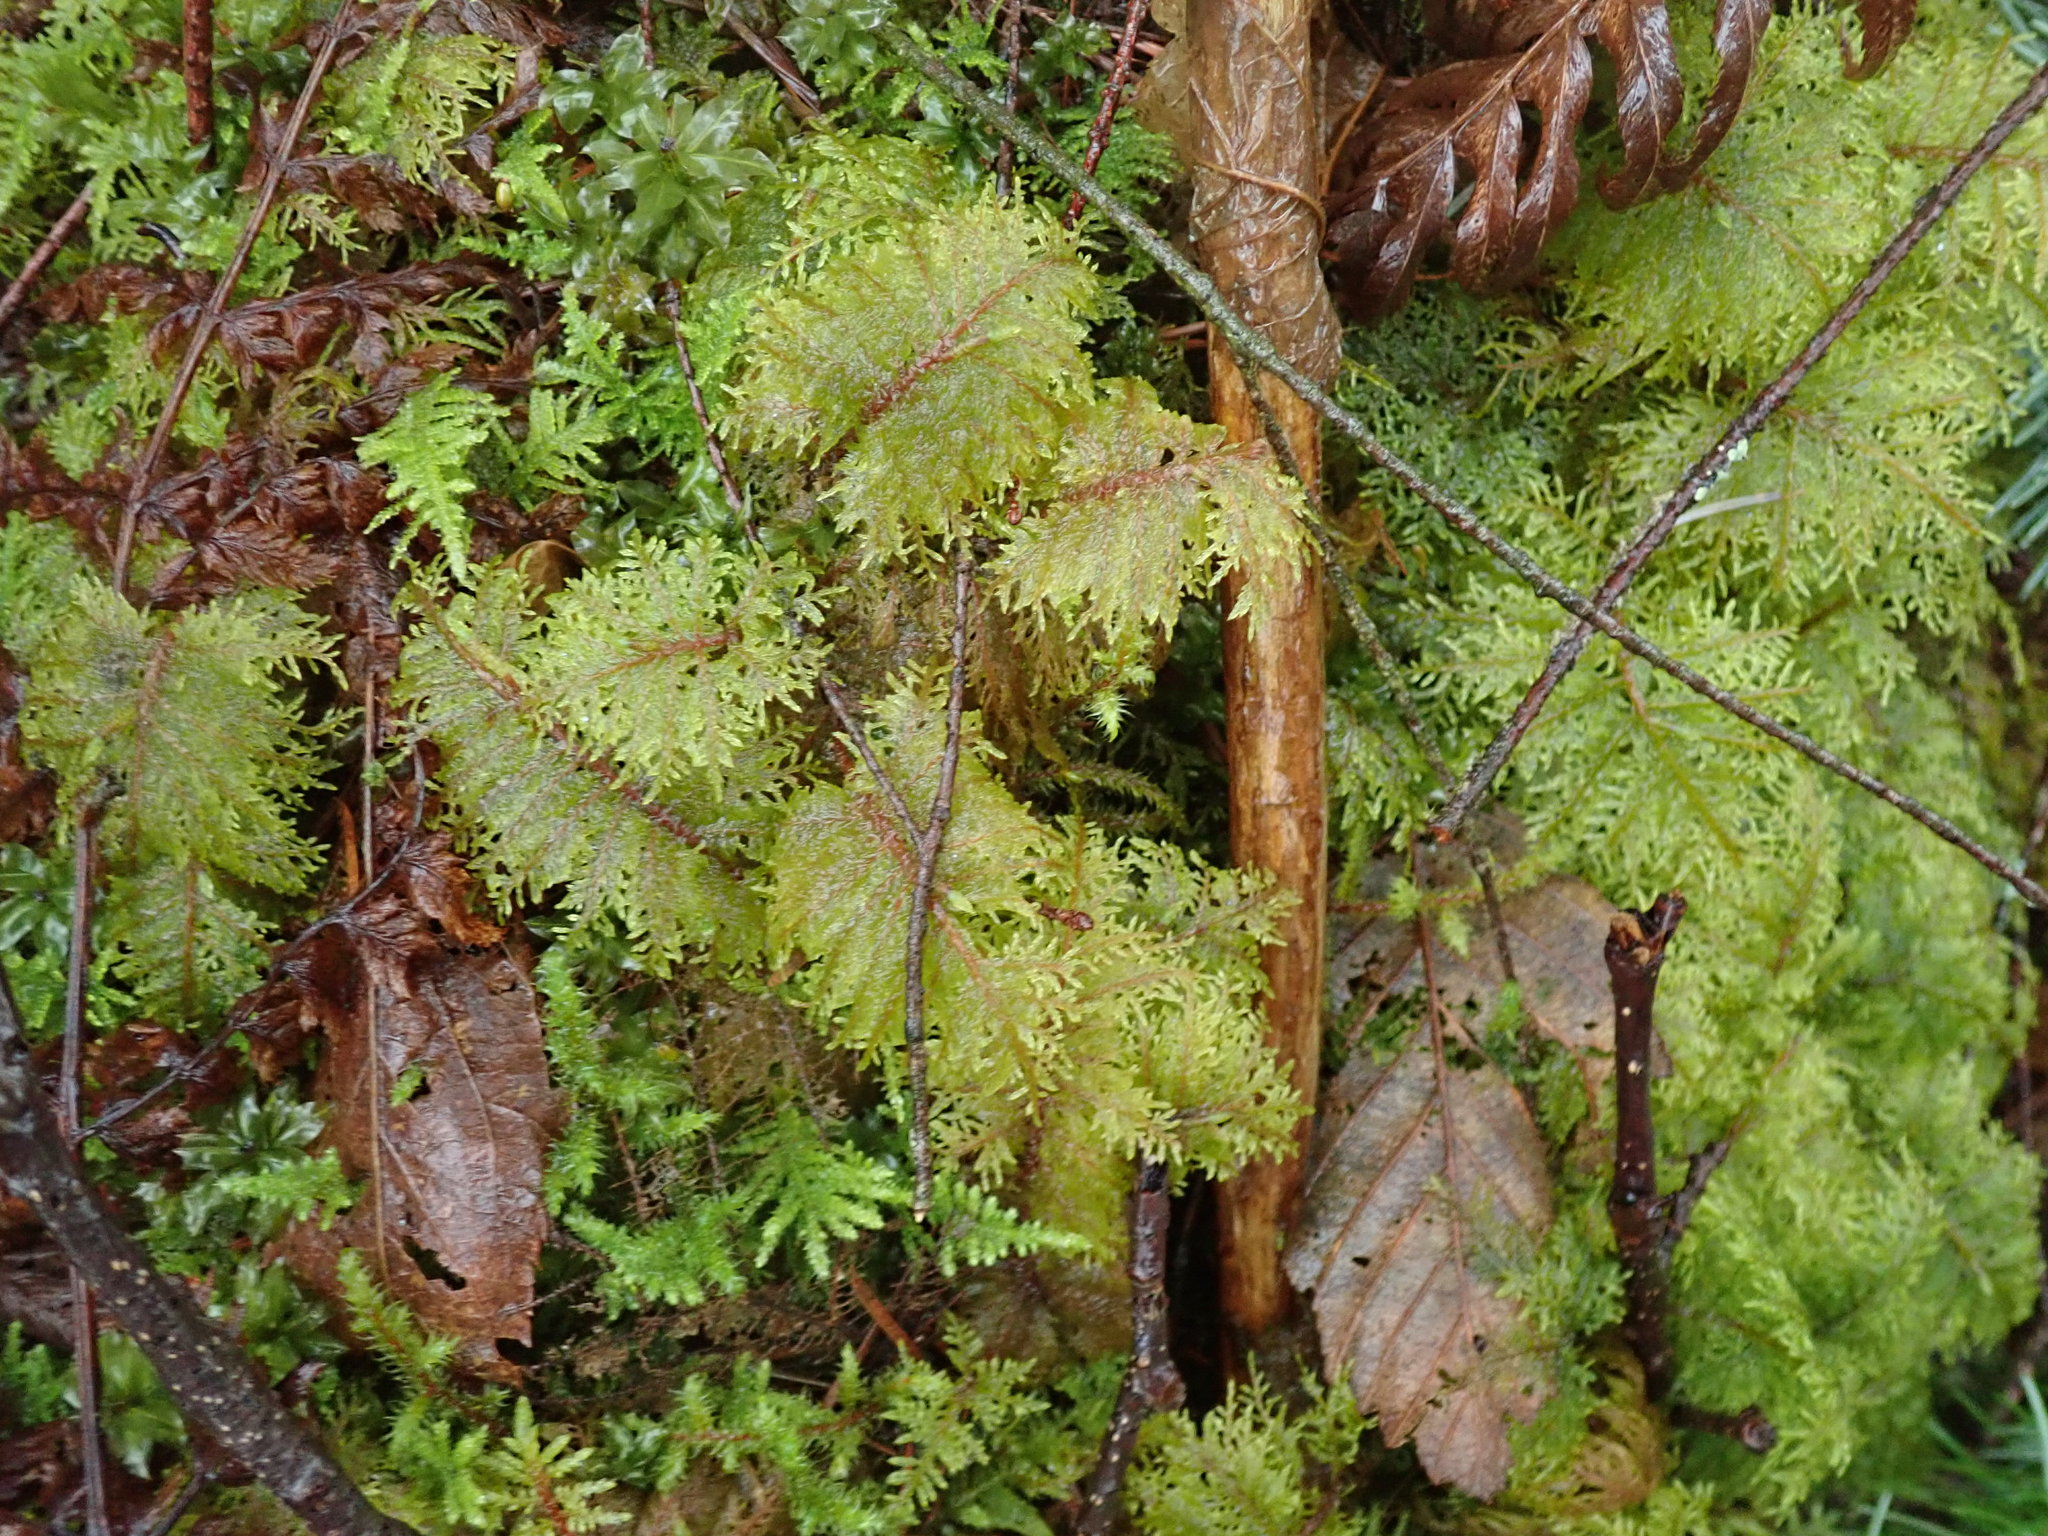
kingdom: Plantae
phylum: Bryophyta
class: Bryopsida
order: Hypnales
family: Hylocomiaceae
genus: Hylocomium
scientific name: Hylocomium splendens
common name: Stairstep moss
